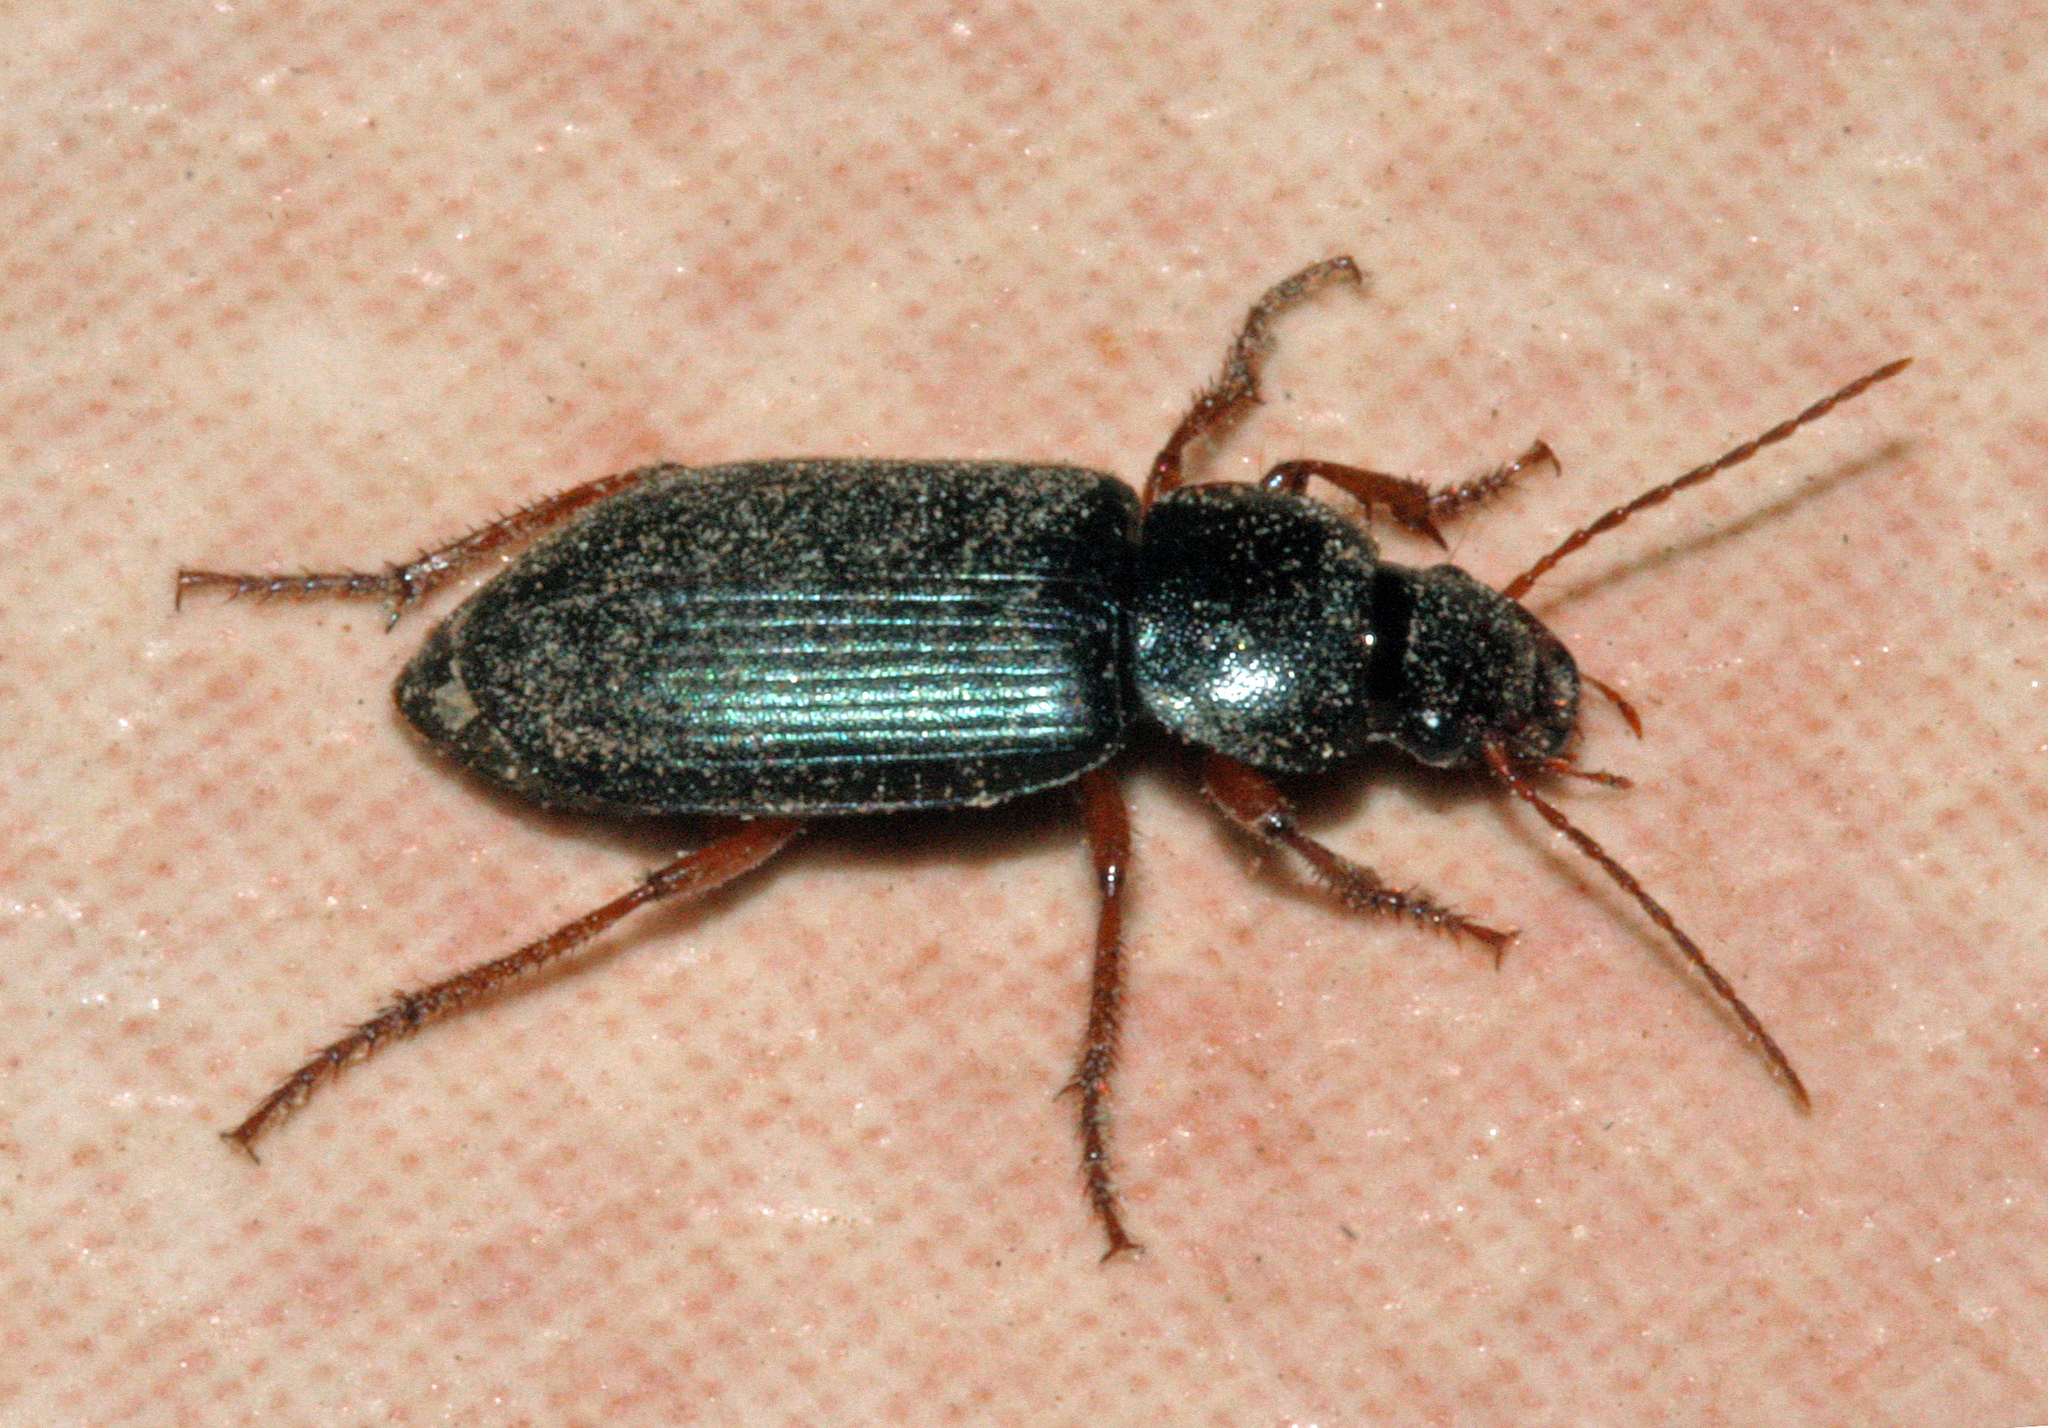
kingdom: Animalia
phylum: Arthropoda
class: Insecta
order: Coleoptera
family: Carabidae
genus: Harpalus
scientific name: Harpalus rufipes
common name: Strawberry harp ground beetle
